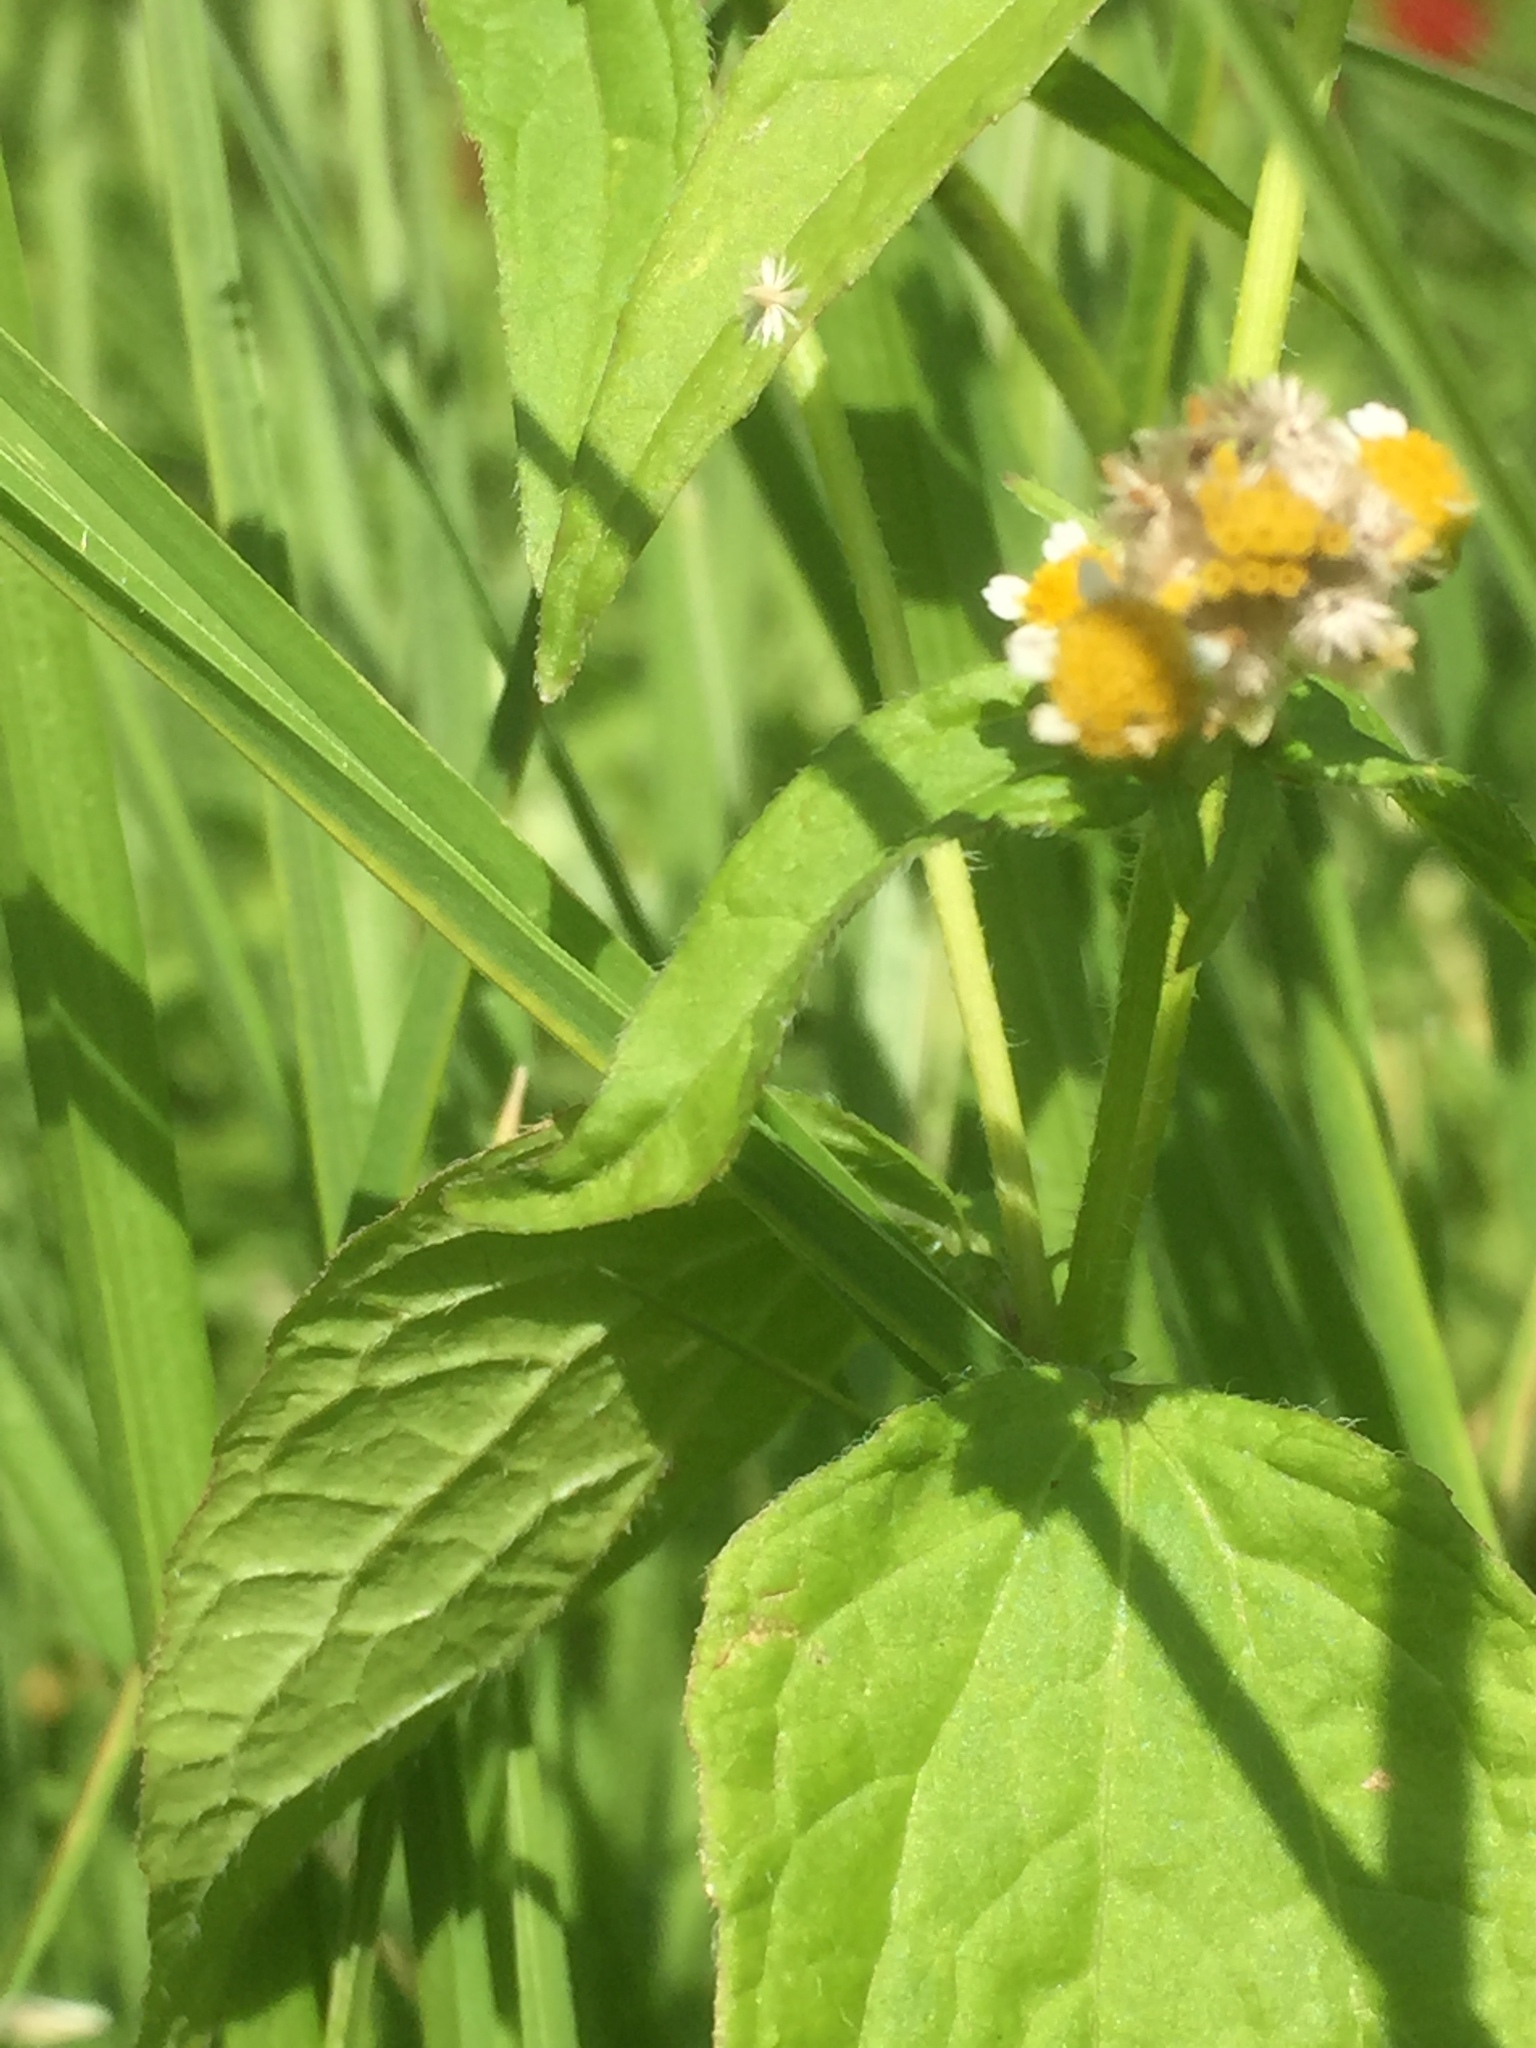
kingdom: Plantae
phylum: Tracheophyta
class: Magnoliopsida
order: Asterales
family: Asteraceae
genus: Galinsoga
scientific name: Galinsoga quadriradiata
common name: Shaggy soldier
